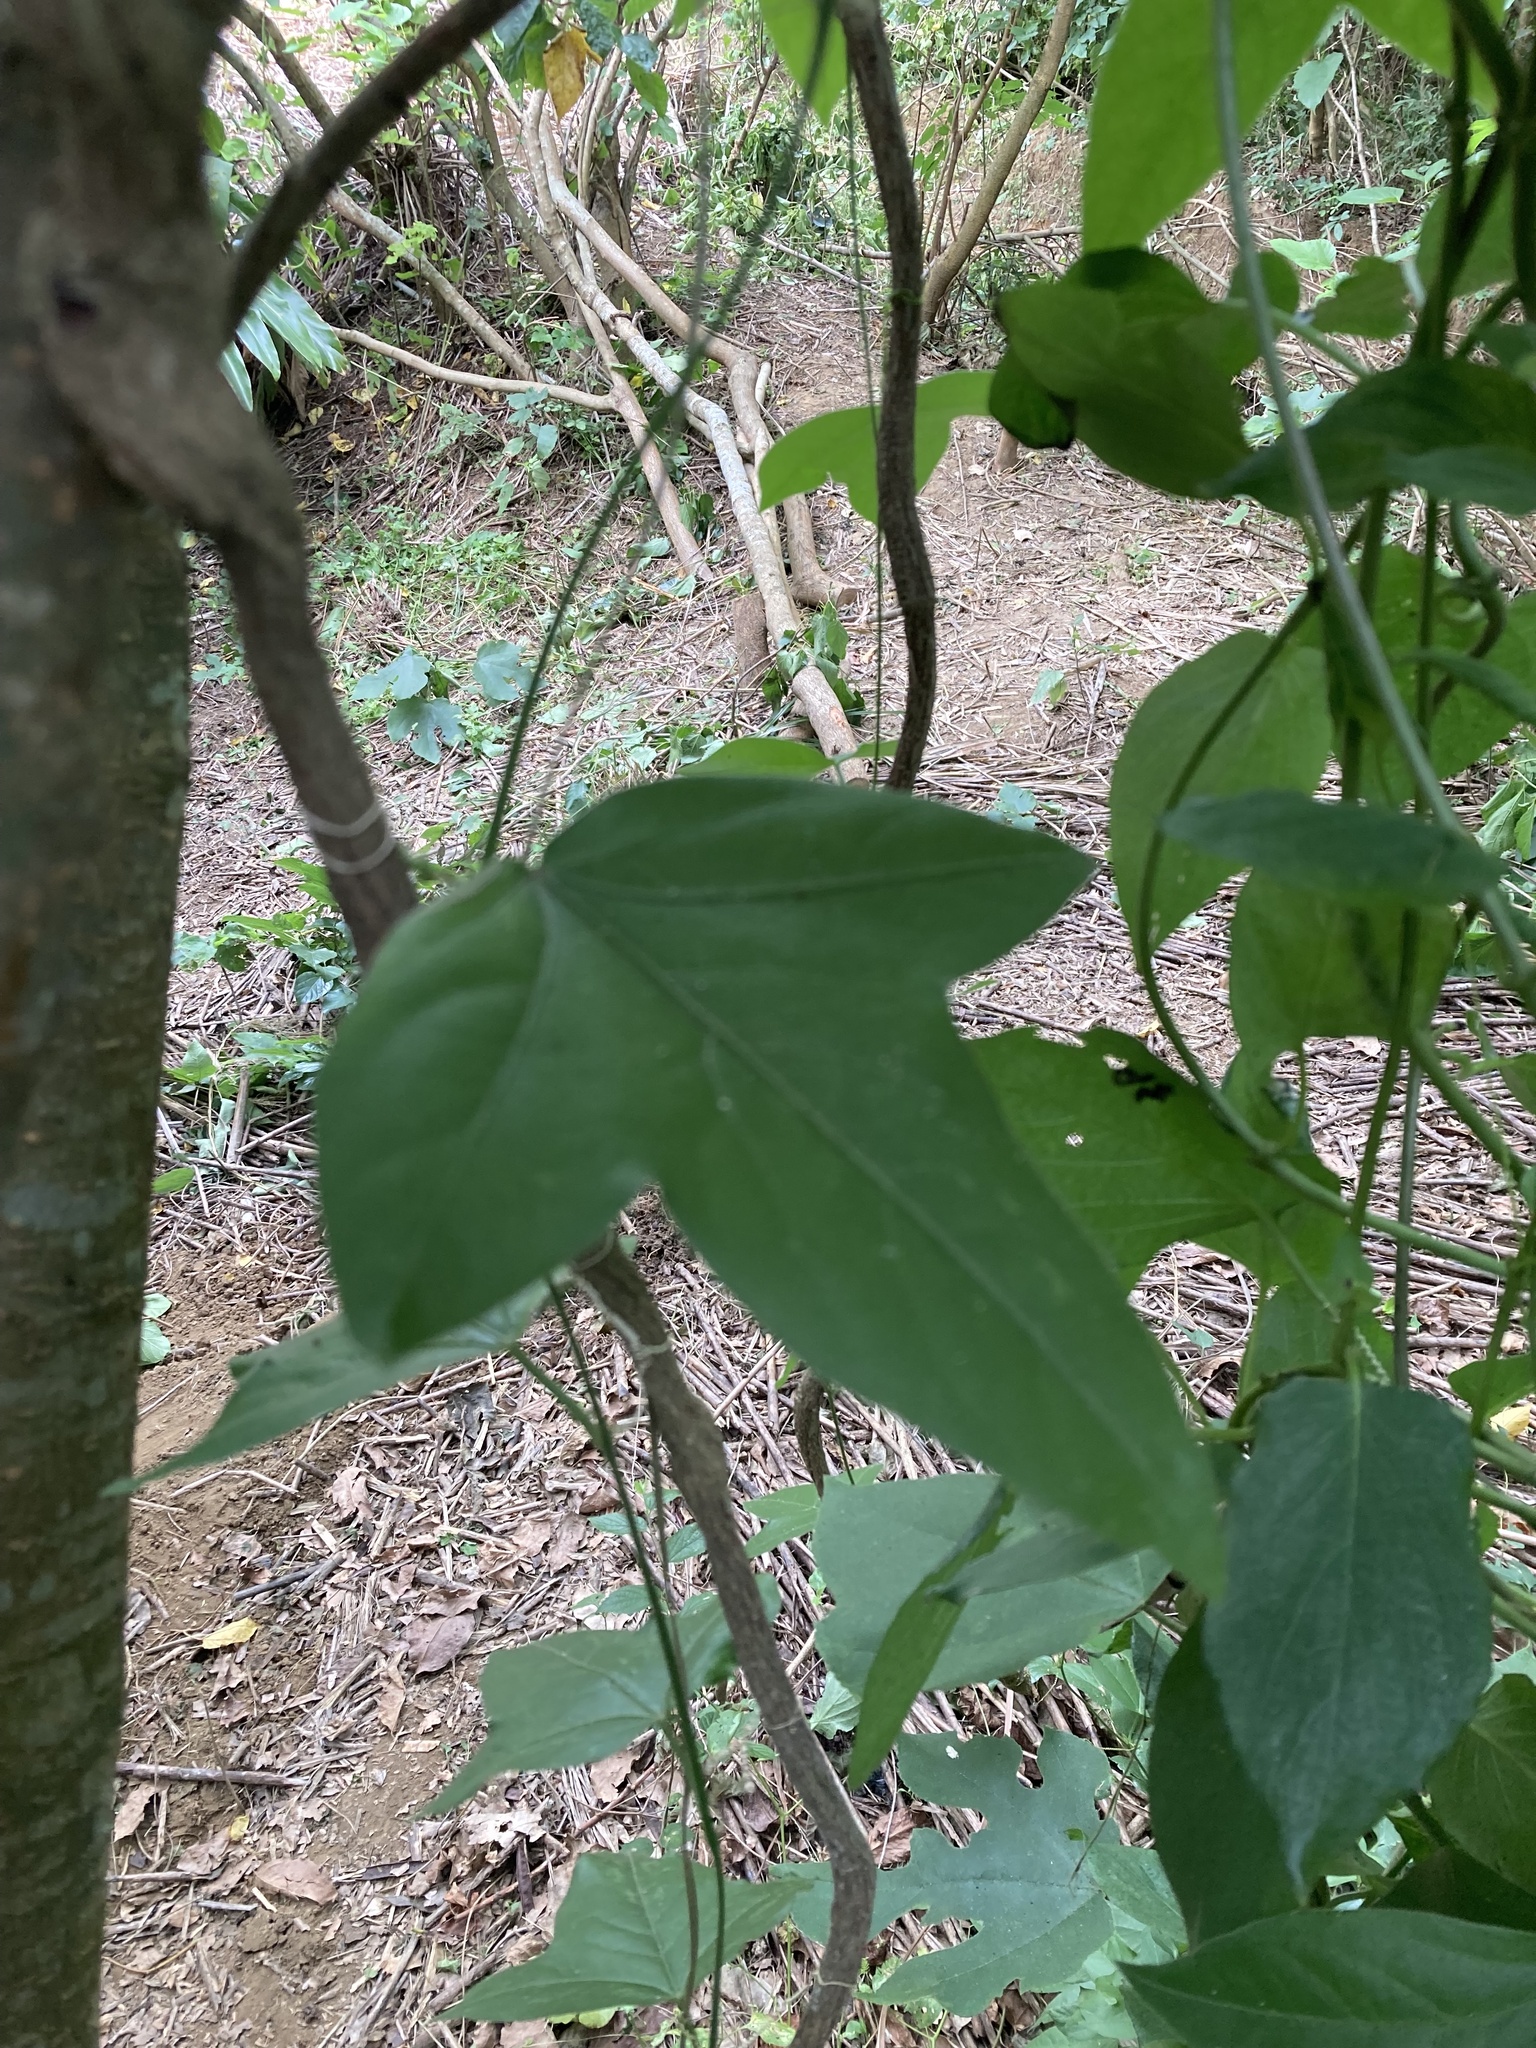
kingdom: Plantae
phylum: Tracheophyta
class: Magnoliopsida
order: Malpighiales
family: Passifloraceae
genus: Passiflora
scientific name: Passiflora suberosa
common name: Wild passionfruit
